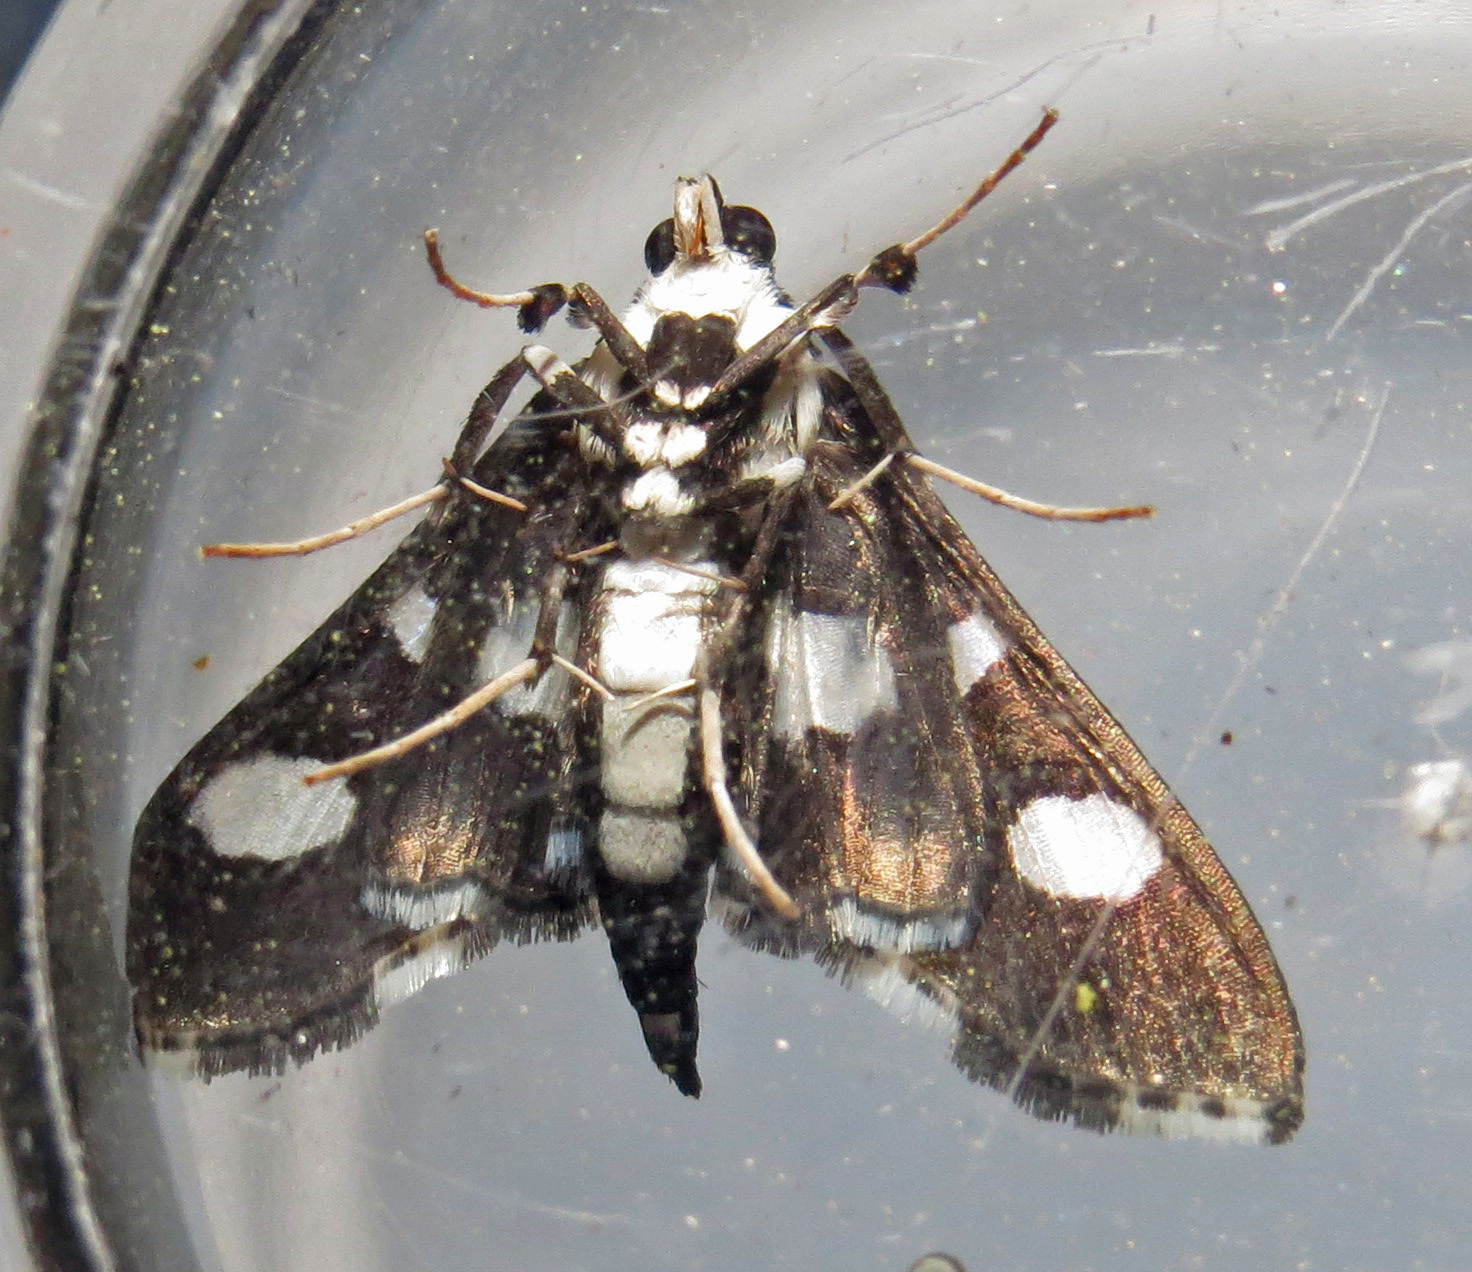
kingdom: Animalia
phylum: Arthropoda
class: Insecta
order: Lepidoptera
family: Crambidae
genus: Desmia
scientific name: Desmia funeralis
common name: Grape leaf folder moth
